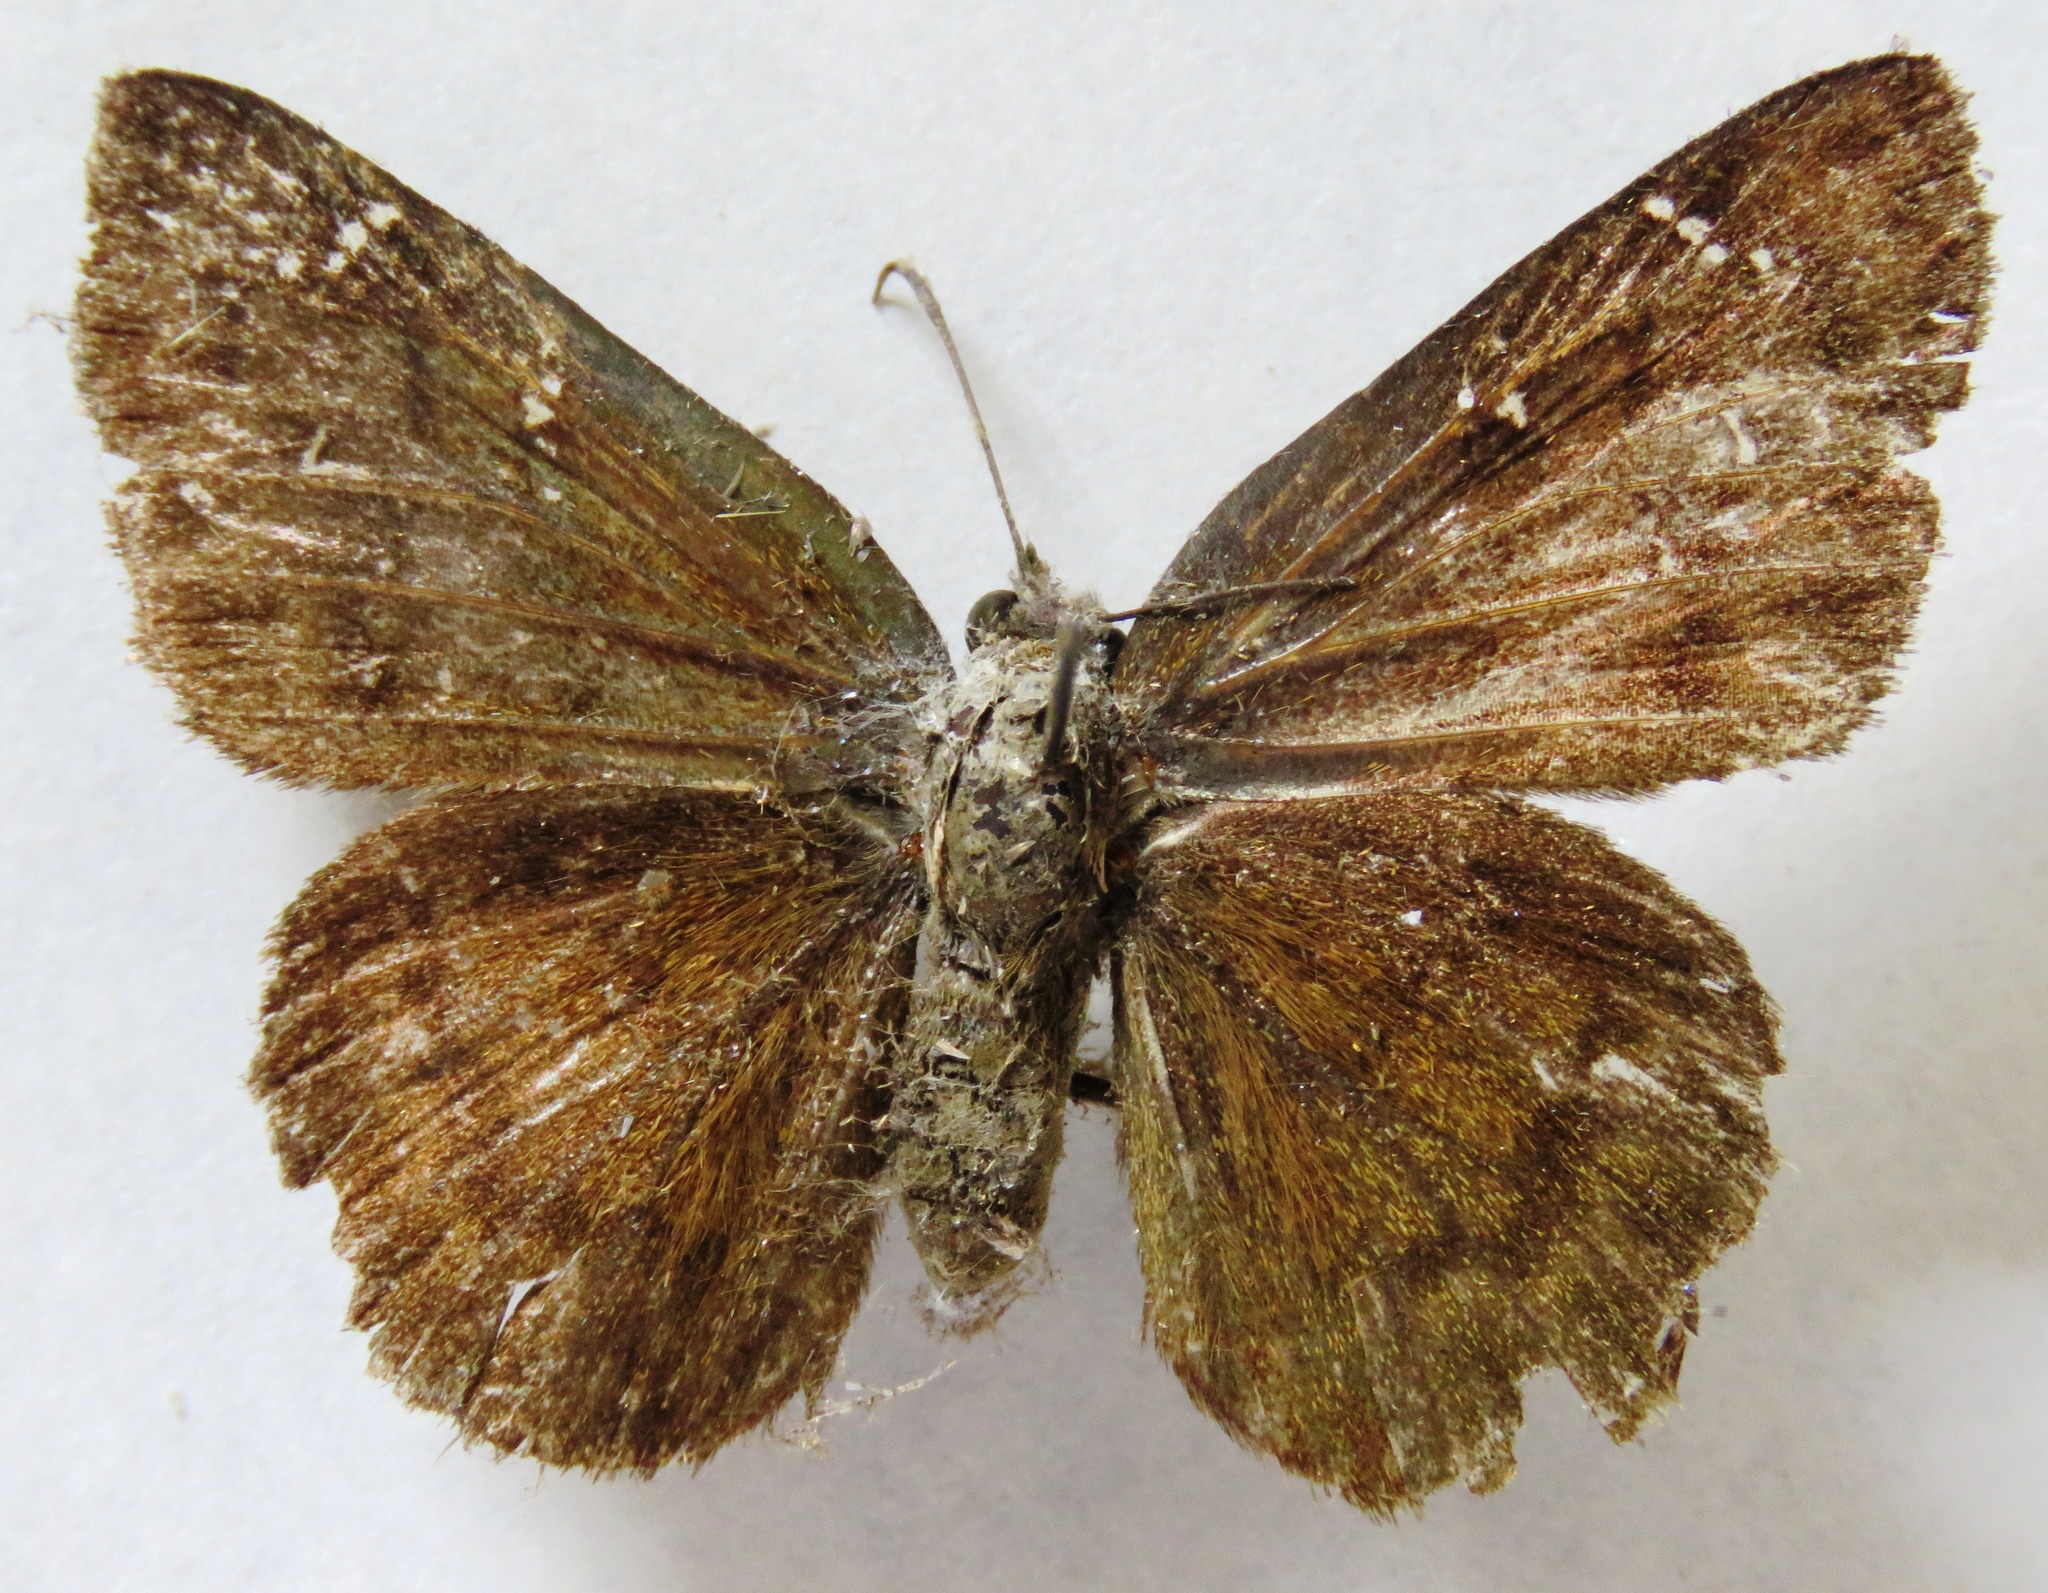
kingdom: Animalia
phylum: Arthropoda
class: Insecta
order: Lepidoptera
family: Hesperiidae
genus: Typhedanus
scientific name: Typhedanus
